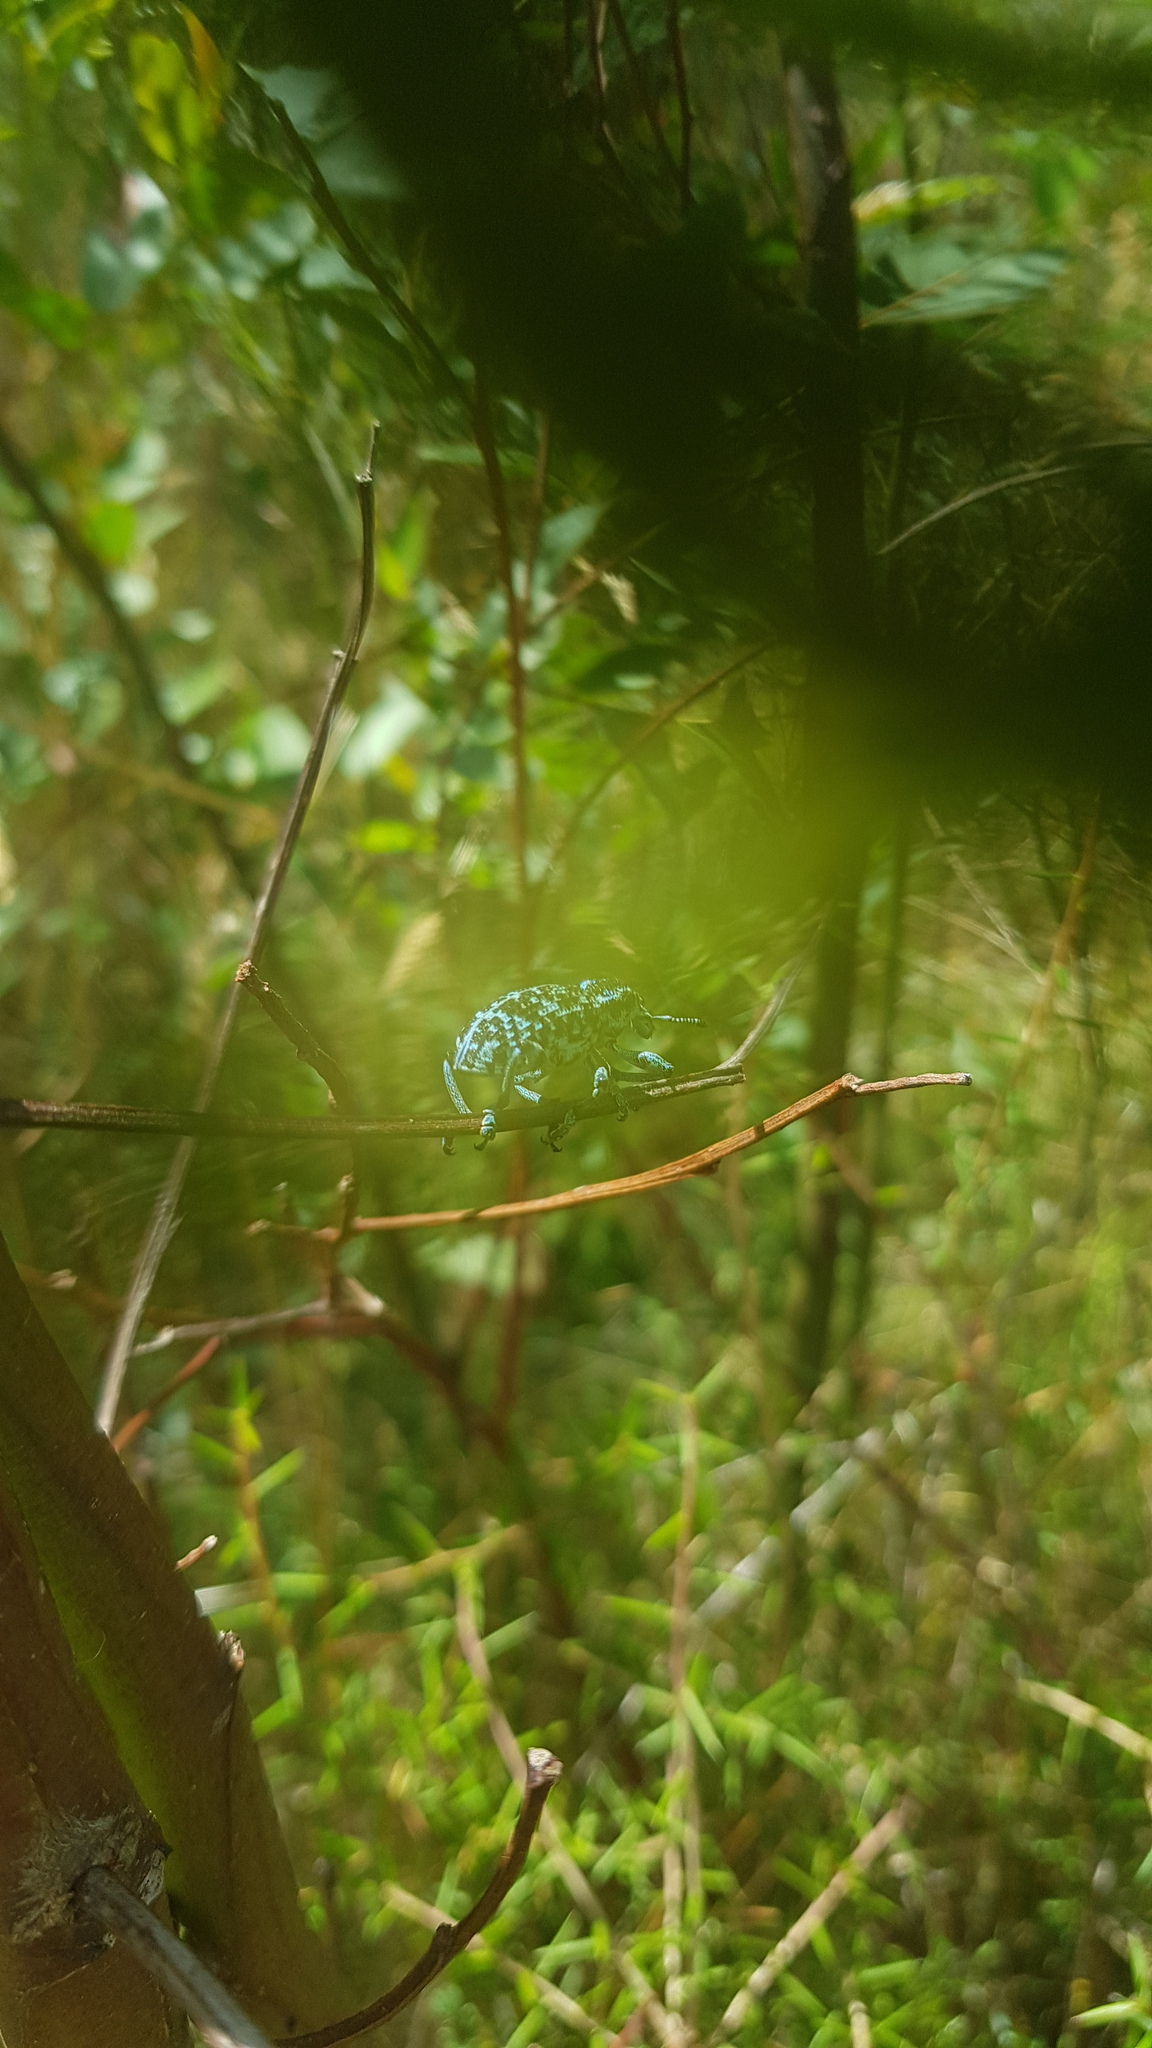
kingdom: Animalia
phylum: Arthropoda
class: Insecta
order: Coleoptera
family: Curculionidae
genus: Chrysolopus
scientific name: Chrysolopus spectabilis
